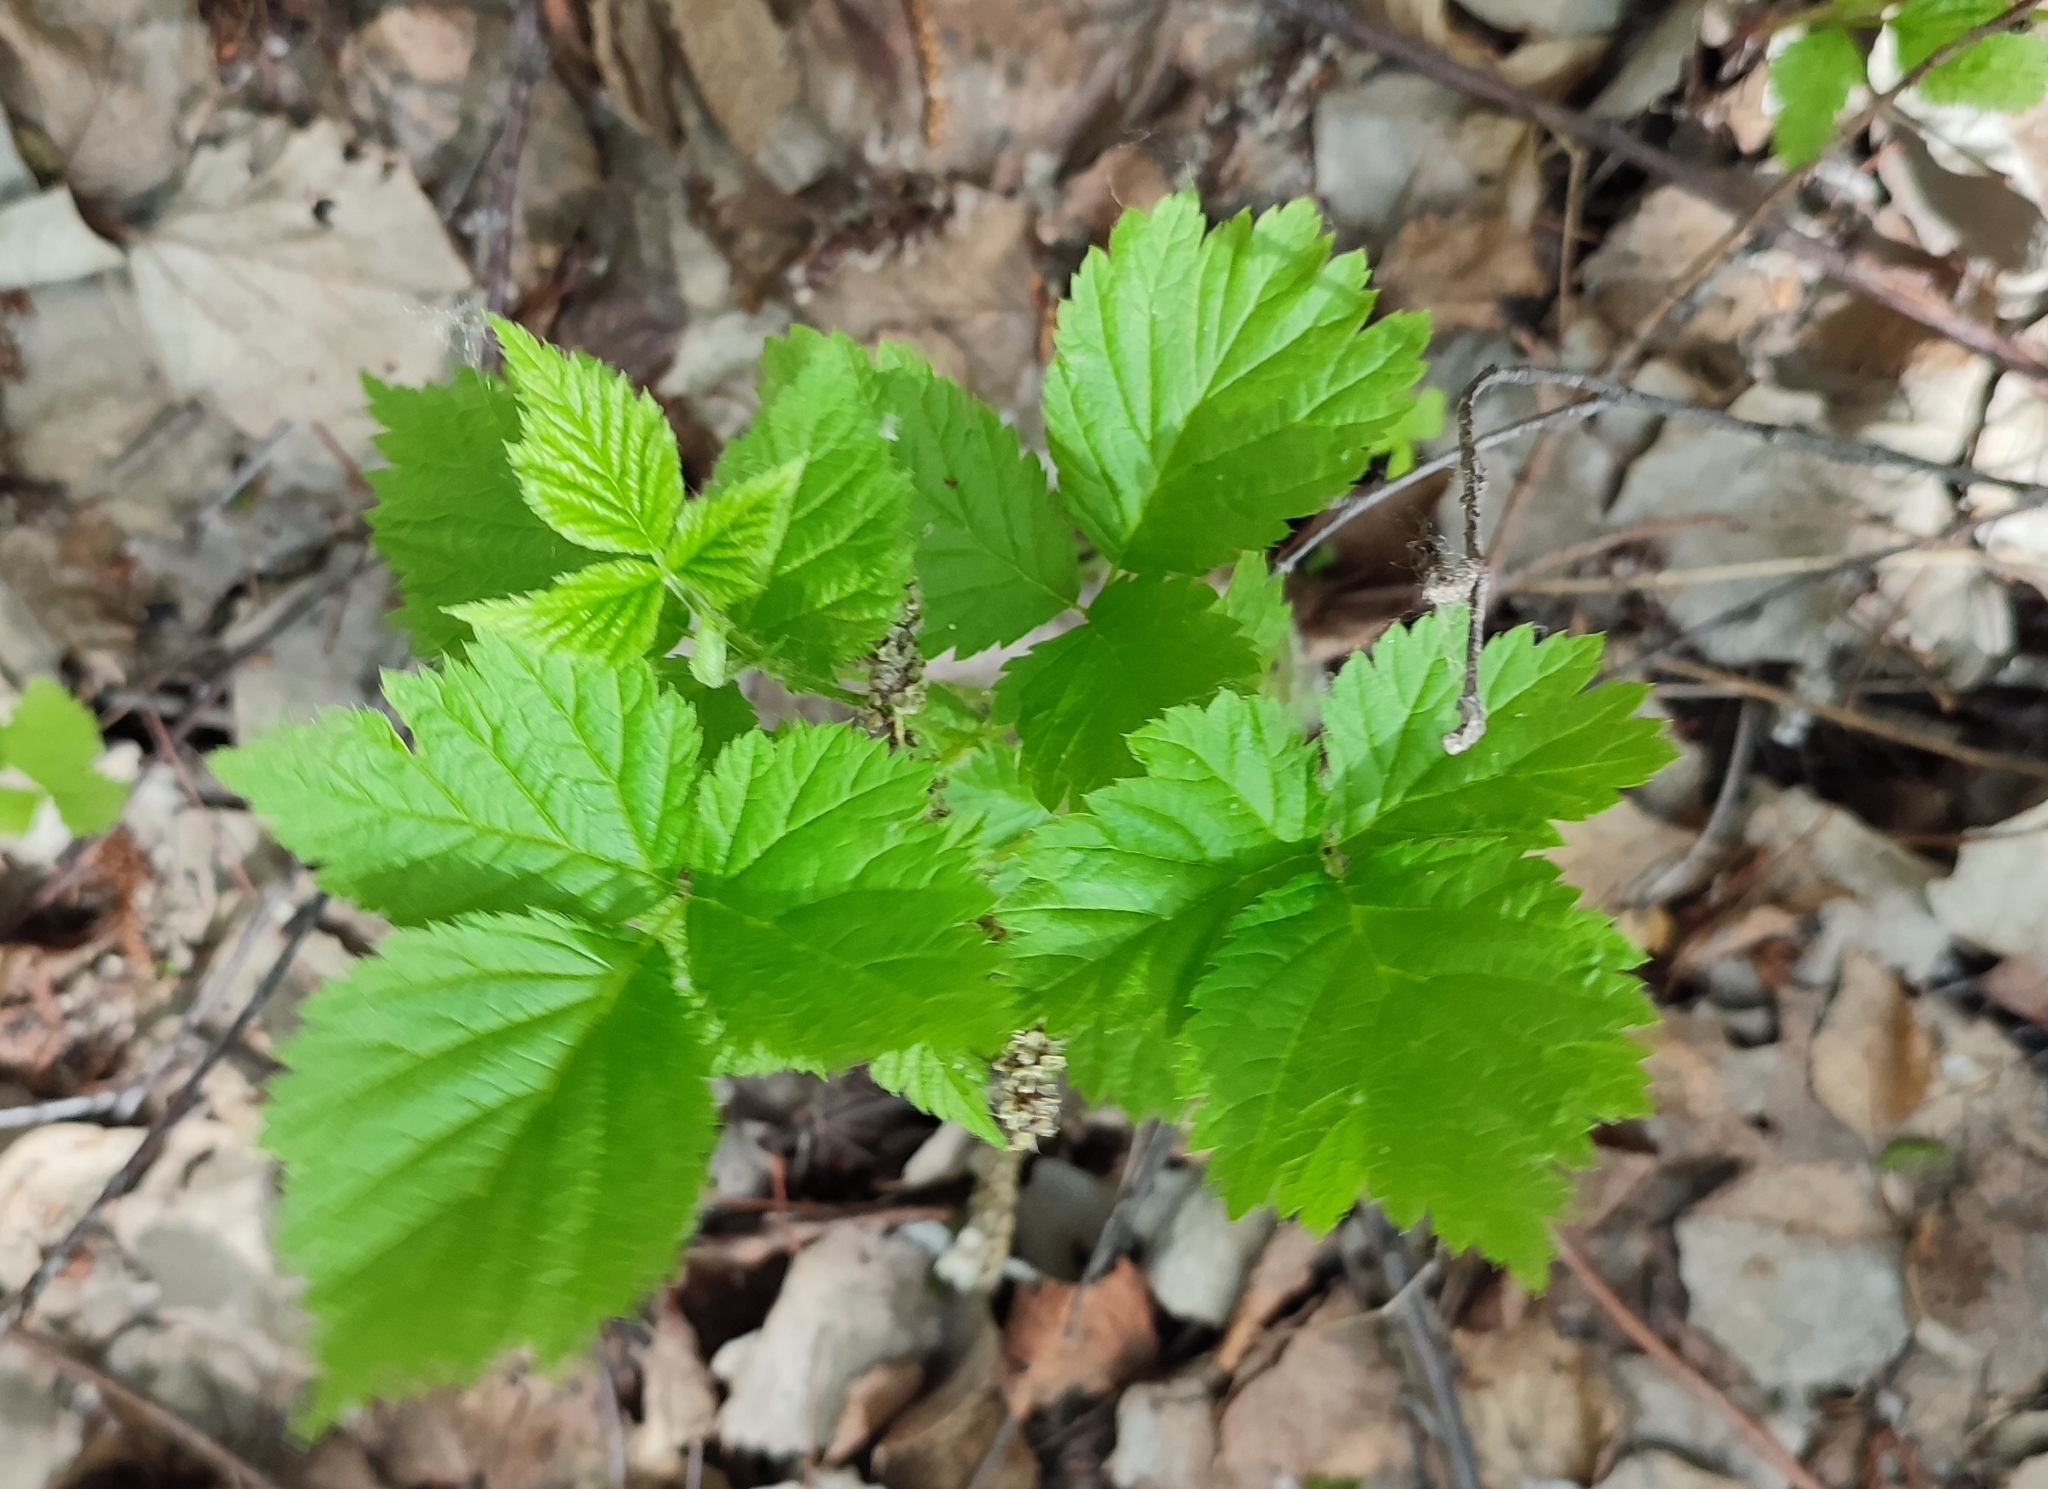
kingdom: Plantae
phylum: Tracheophyta
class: Magnoliopsida
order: Rosales
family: Rosaceae
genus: Rubus
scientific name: Rubus saxatilis
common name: Stone bramble
